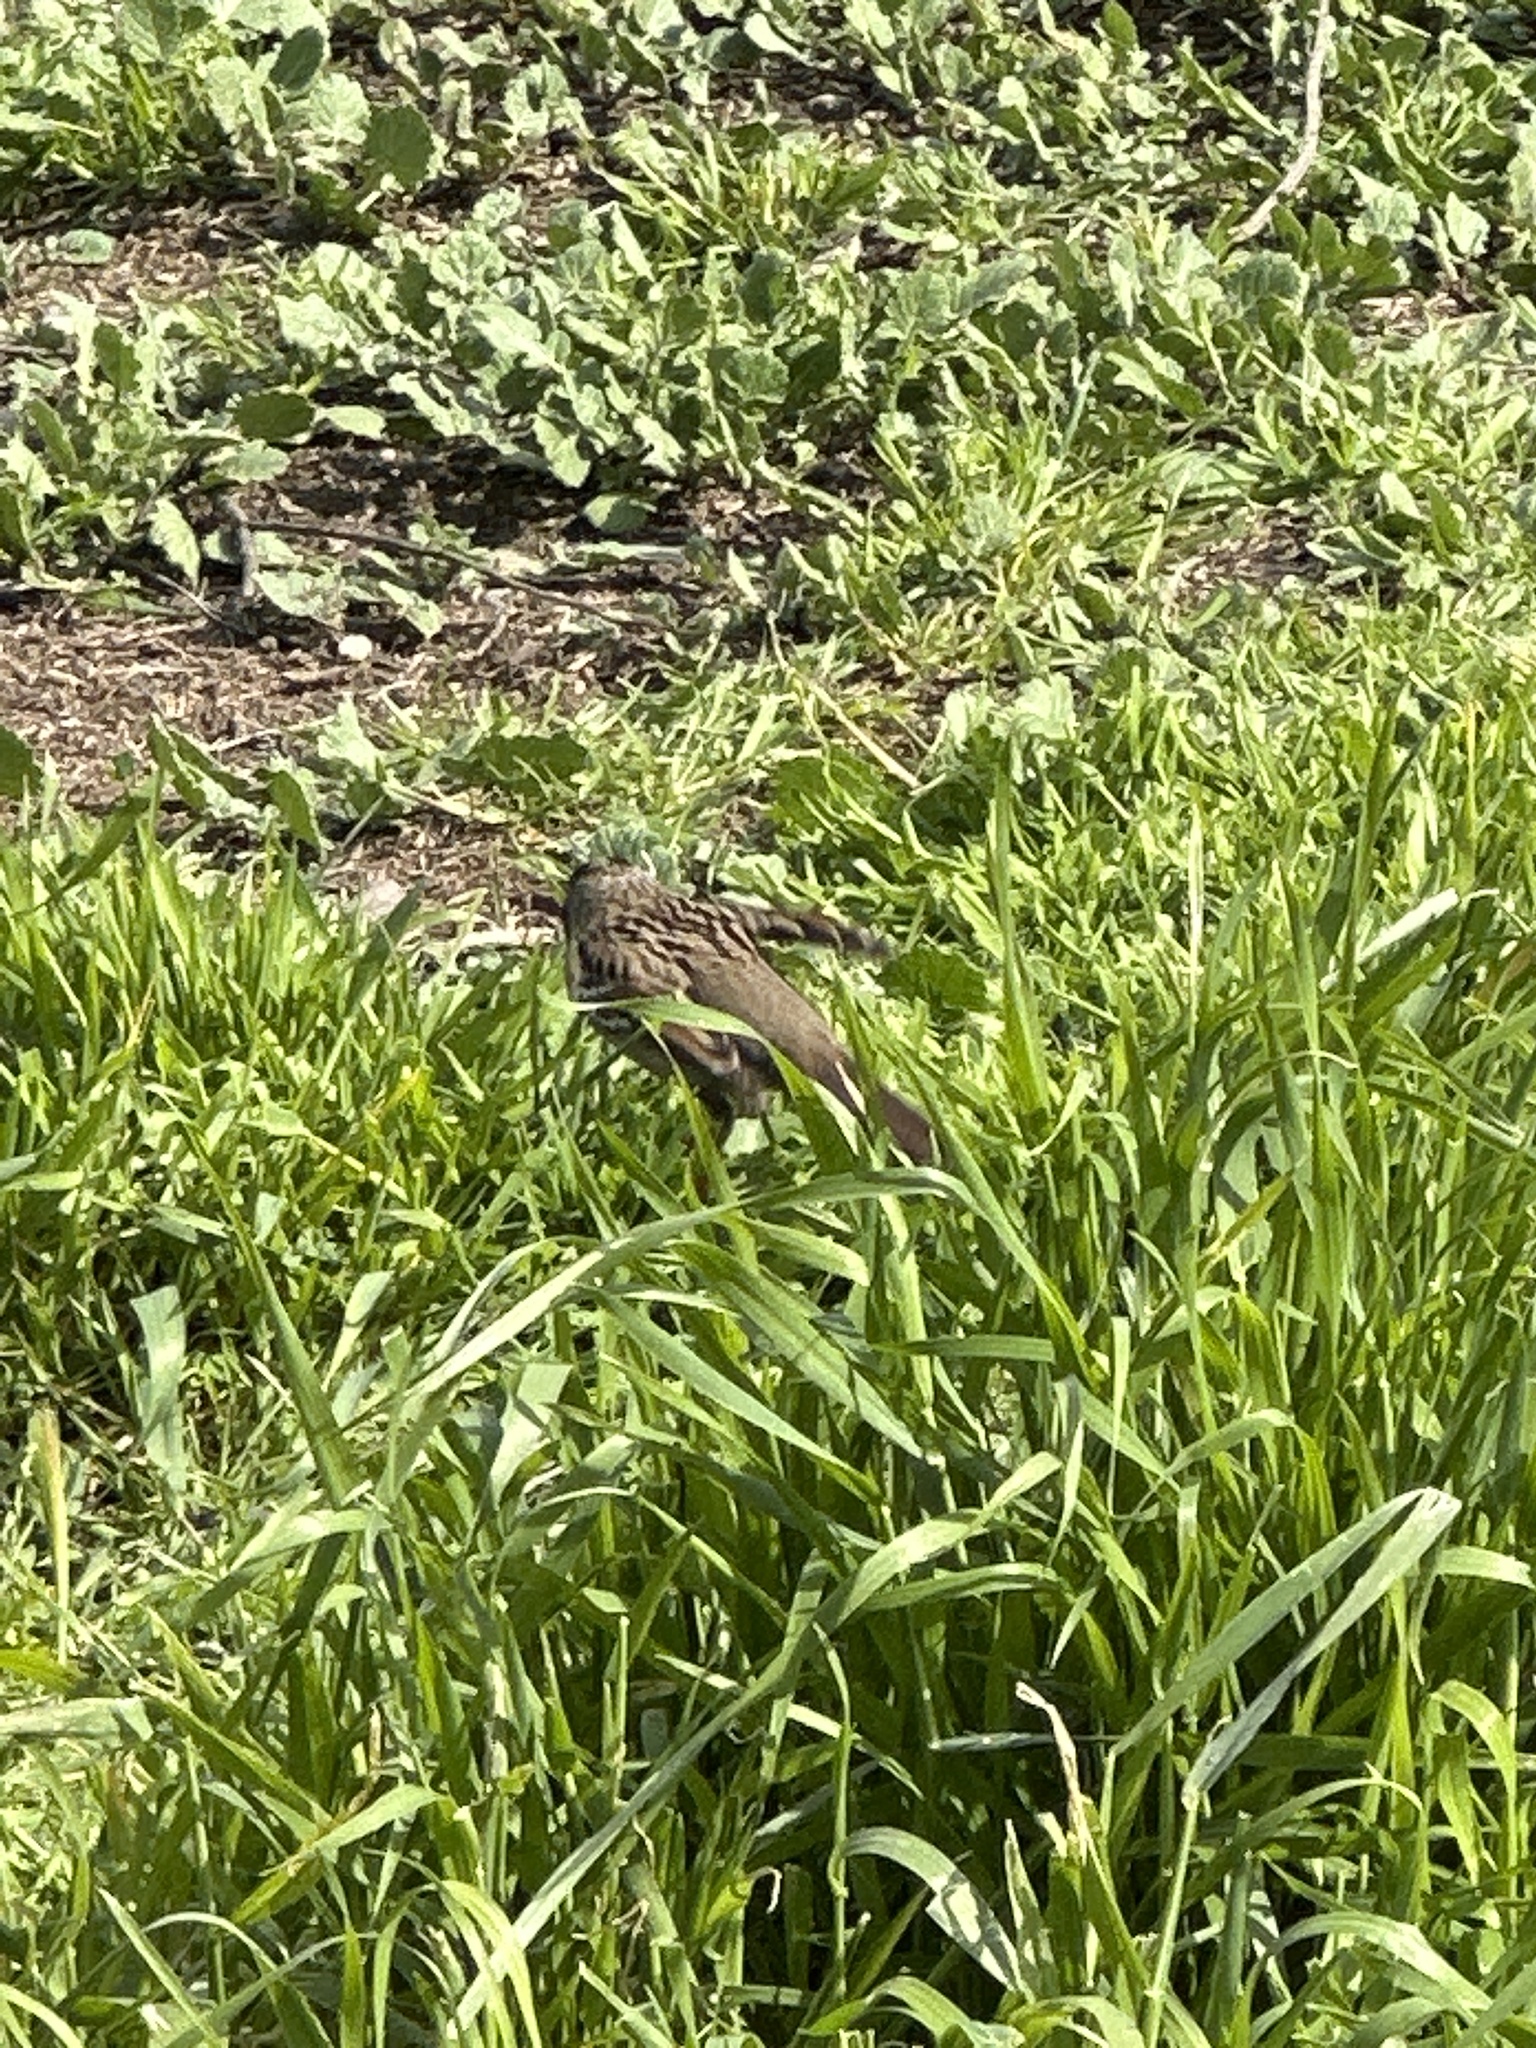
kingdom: Animalia
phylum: Chordata
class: Aves
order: Passeriformes
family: Passerellidae
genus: Zonotrichia
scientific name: Zonotrichia atricapilla
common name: Golden-crowned sparrow
